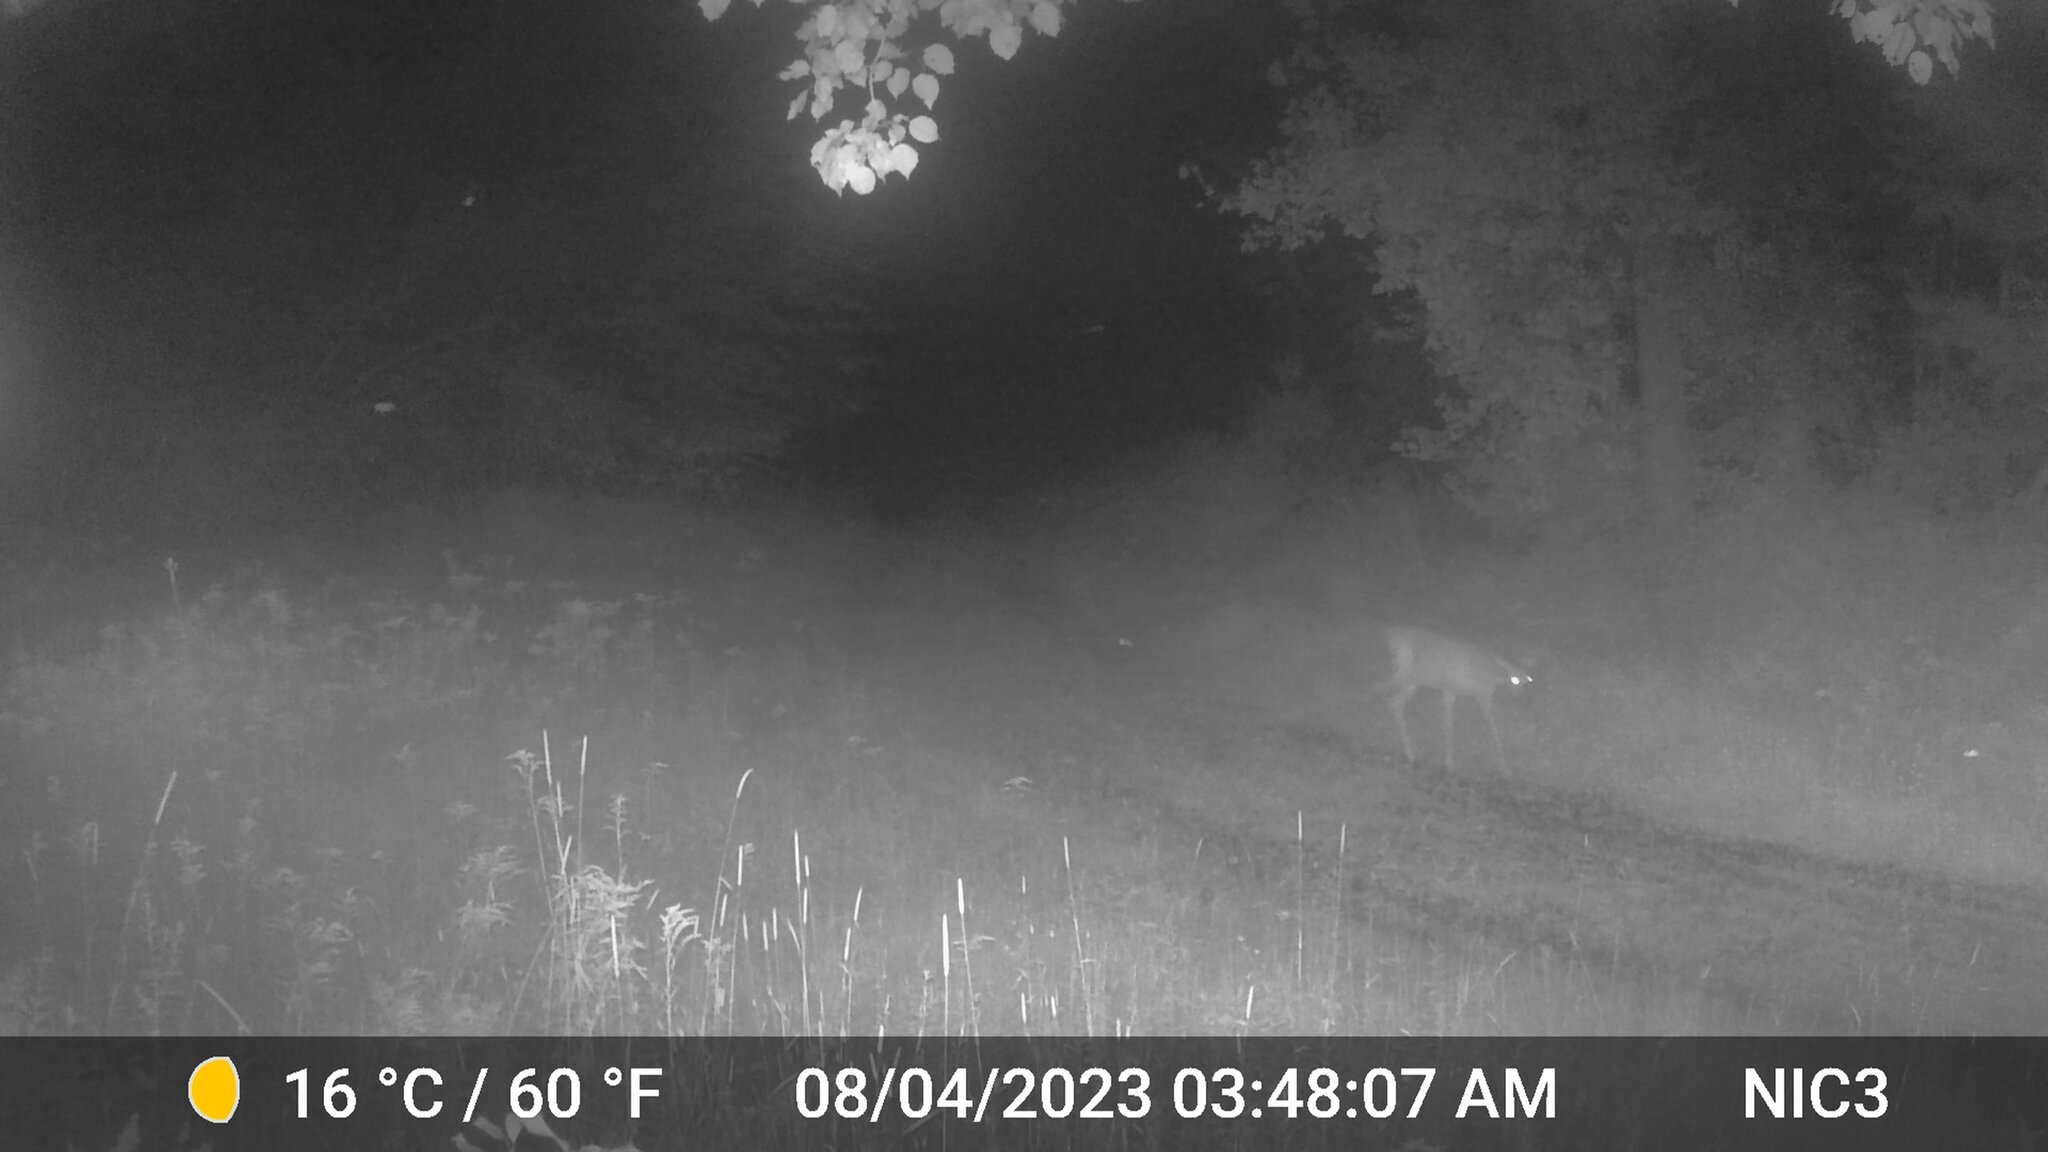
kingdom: Animalia
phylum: Chordata
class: Mammalia
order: Artiodactyla
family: Cervidae
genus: Odocoileus
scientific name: Odocoileus virginianus
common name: White-tailed deer
